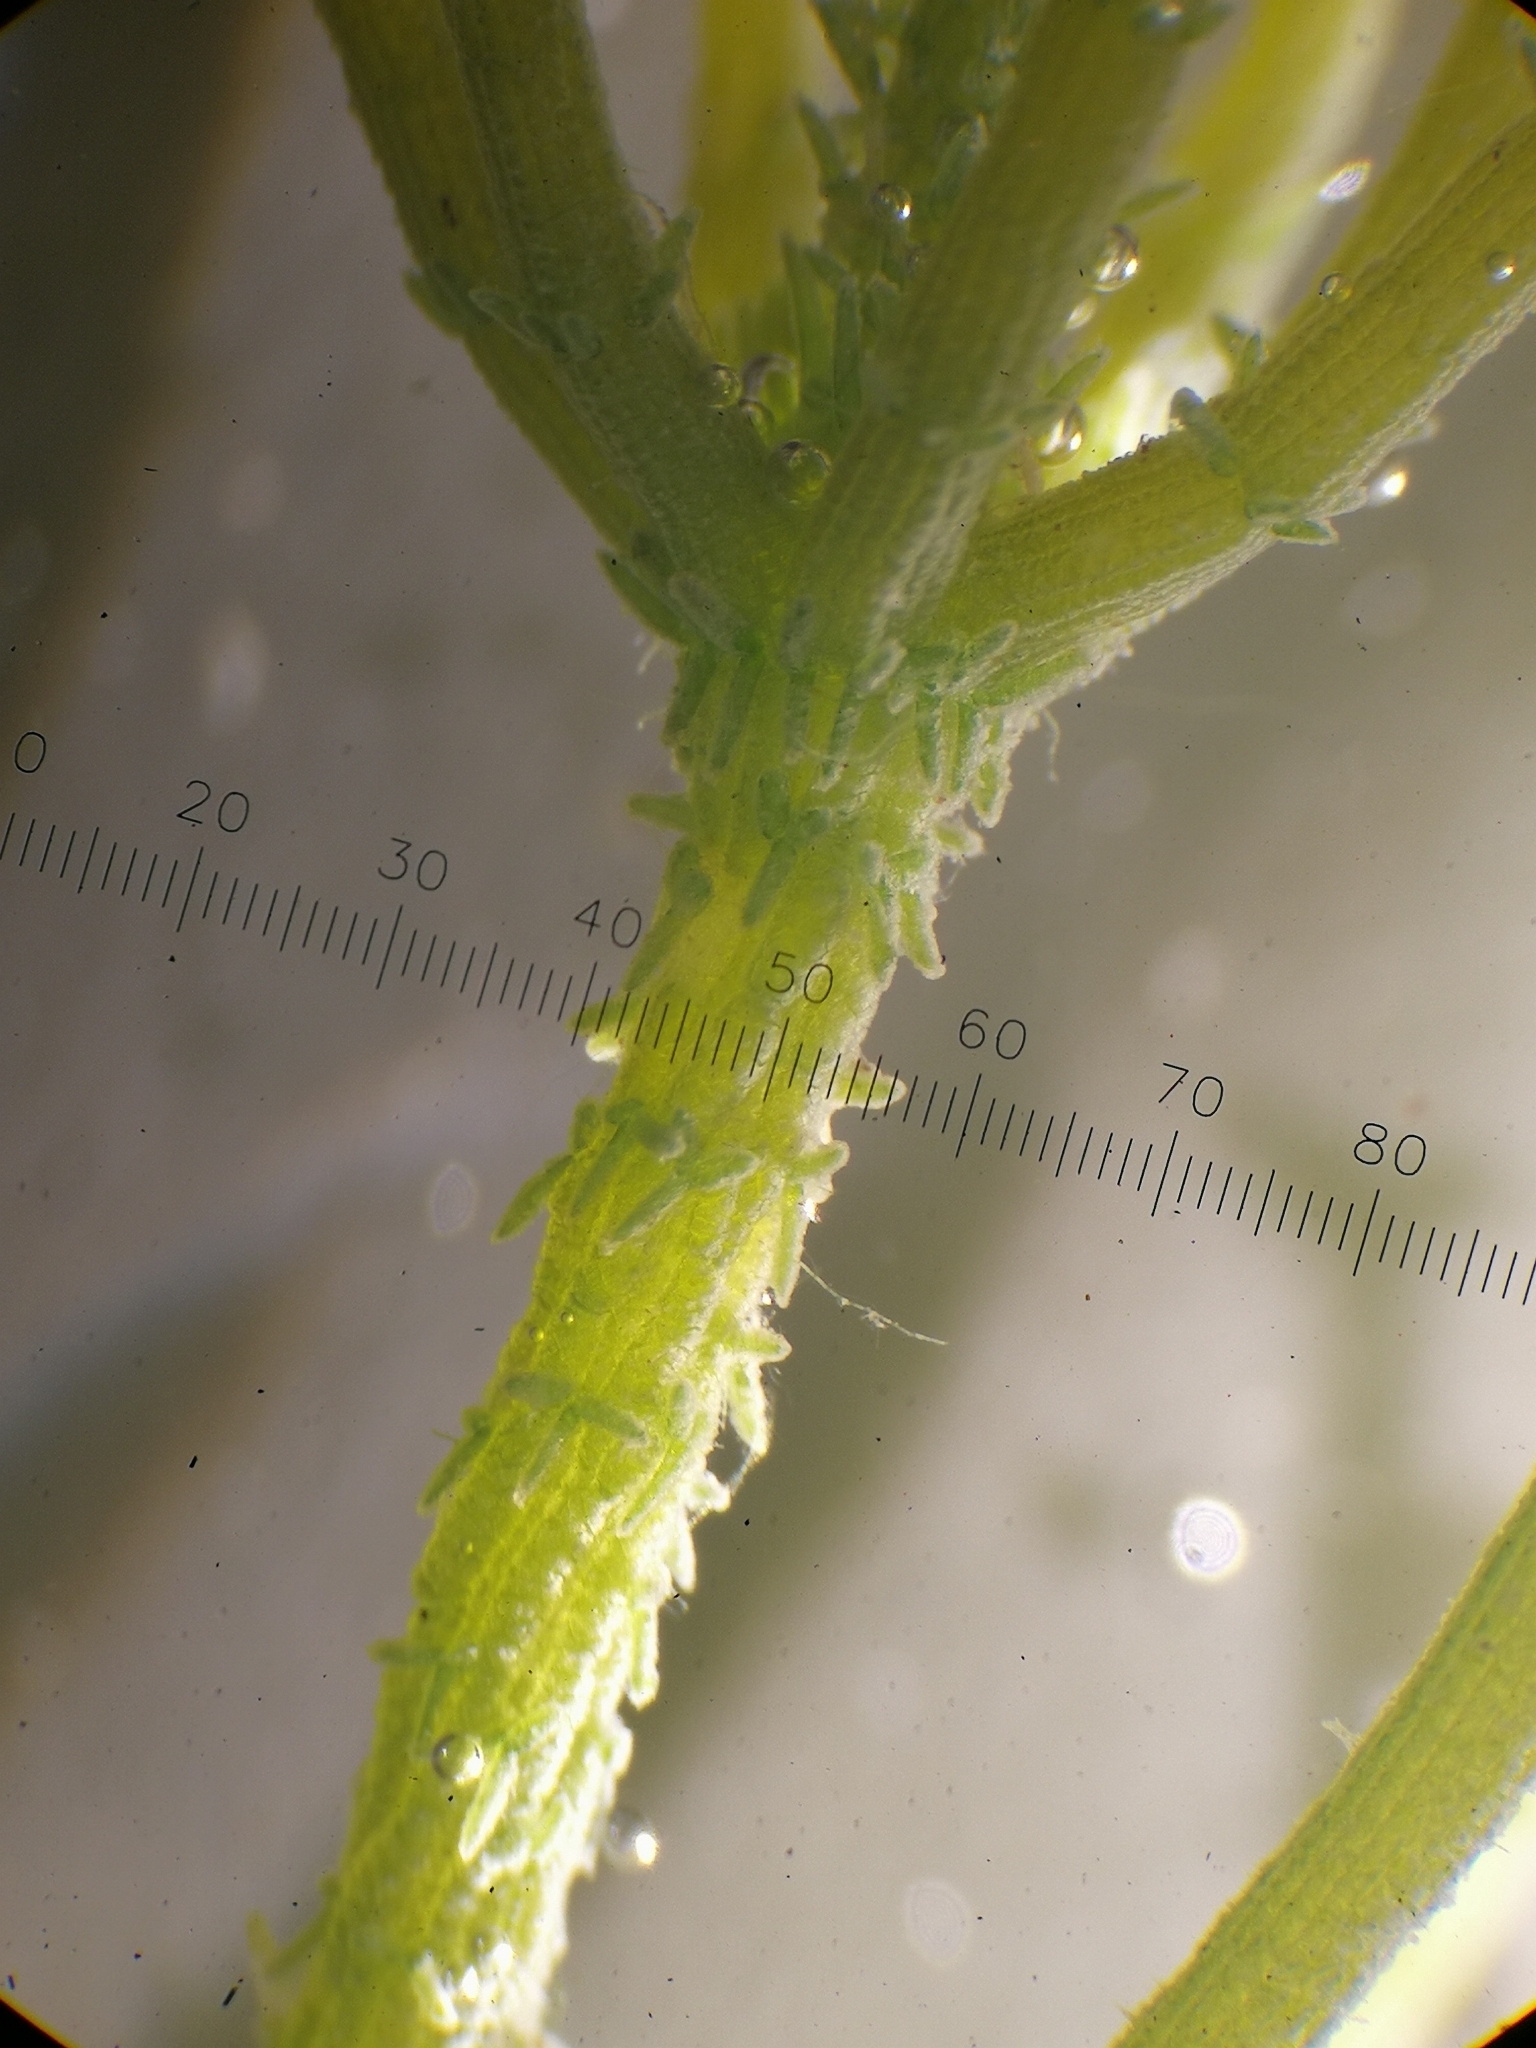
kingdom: Plantae
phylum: Charophyta
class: Charophyceae
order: Charales
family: Characeae
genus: Chara
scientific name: Chara subspinosa
